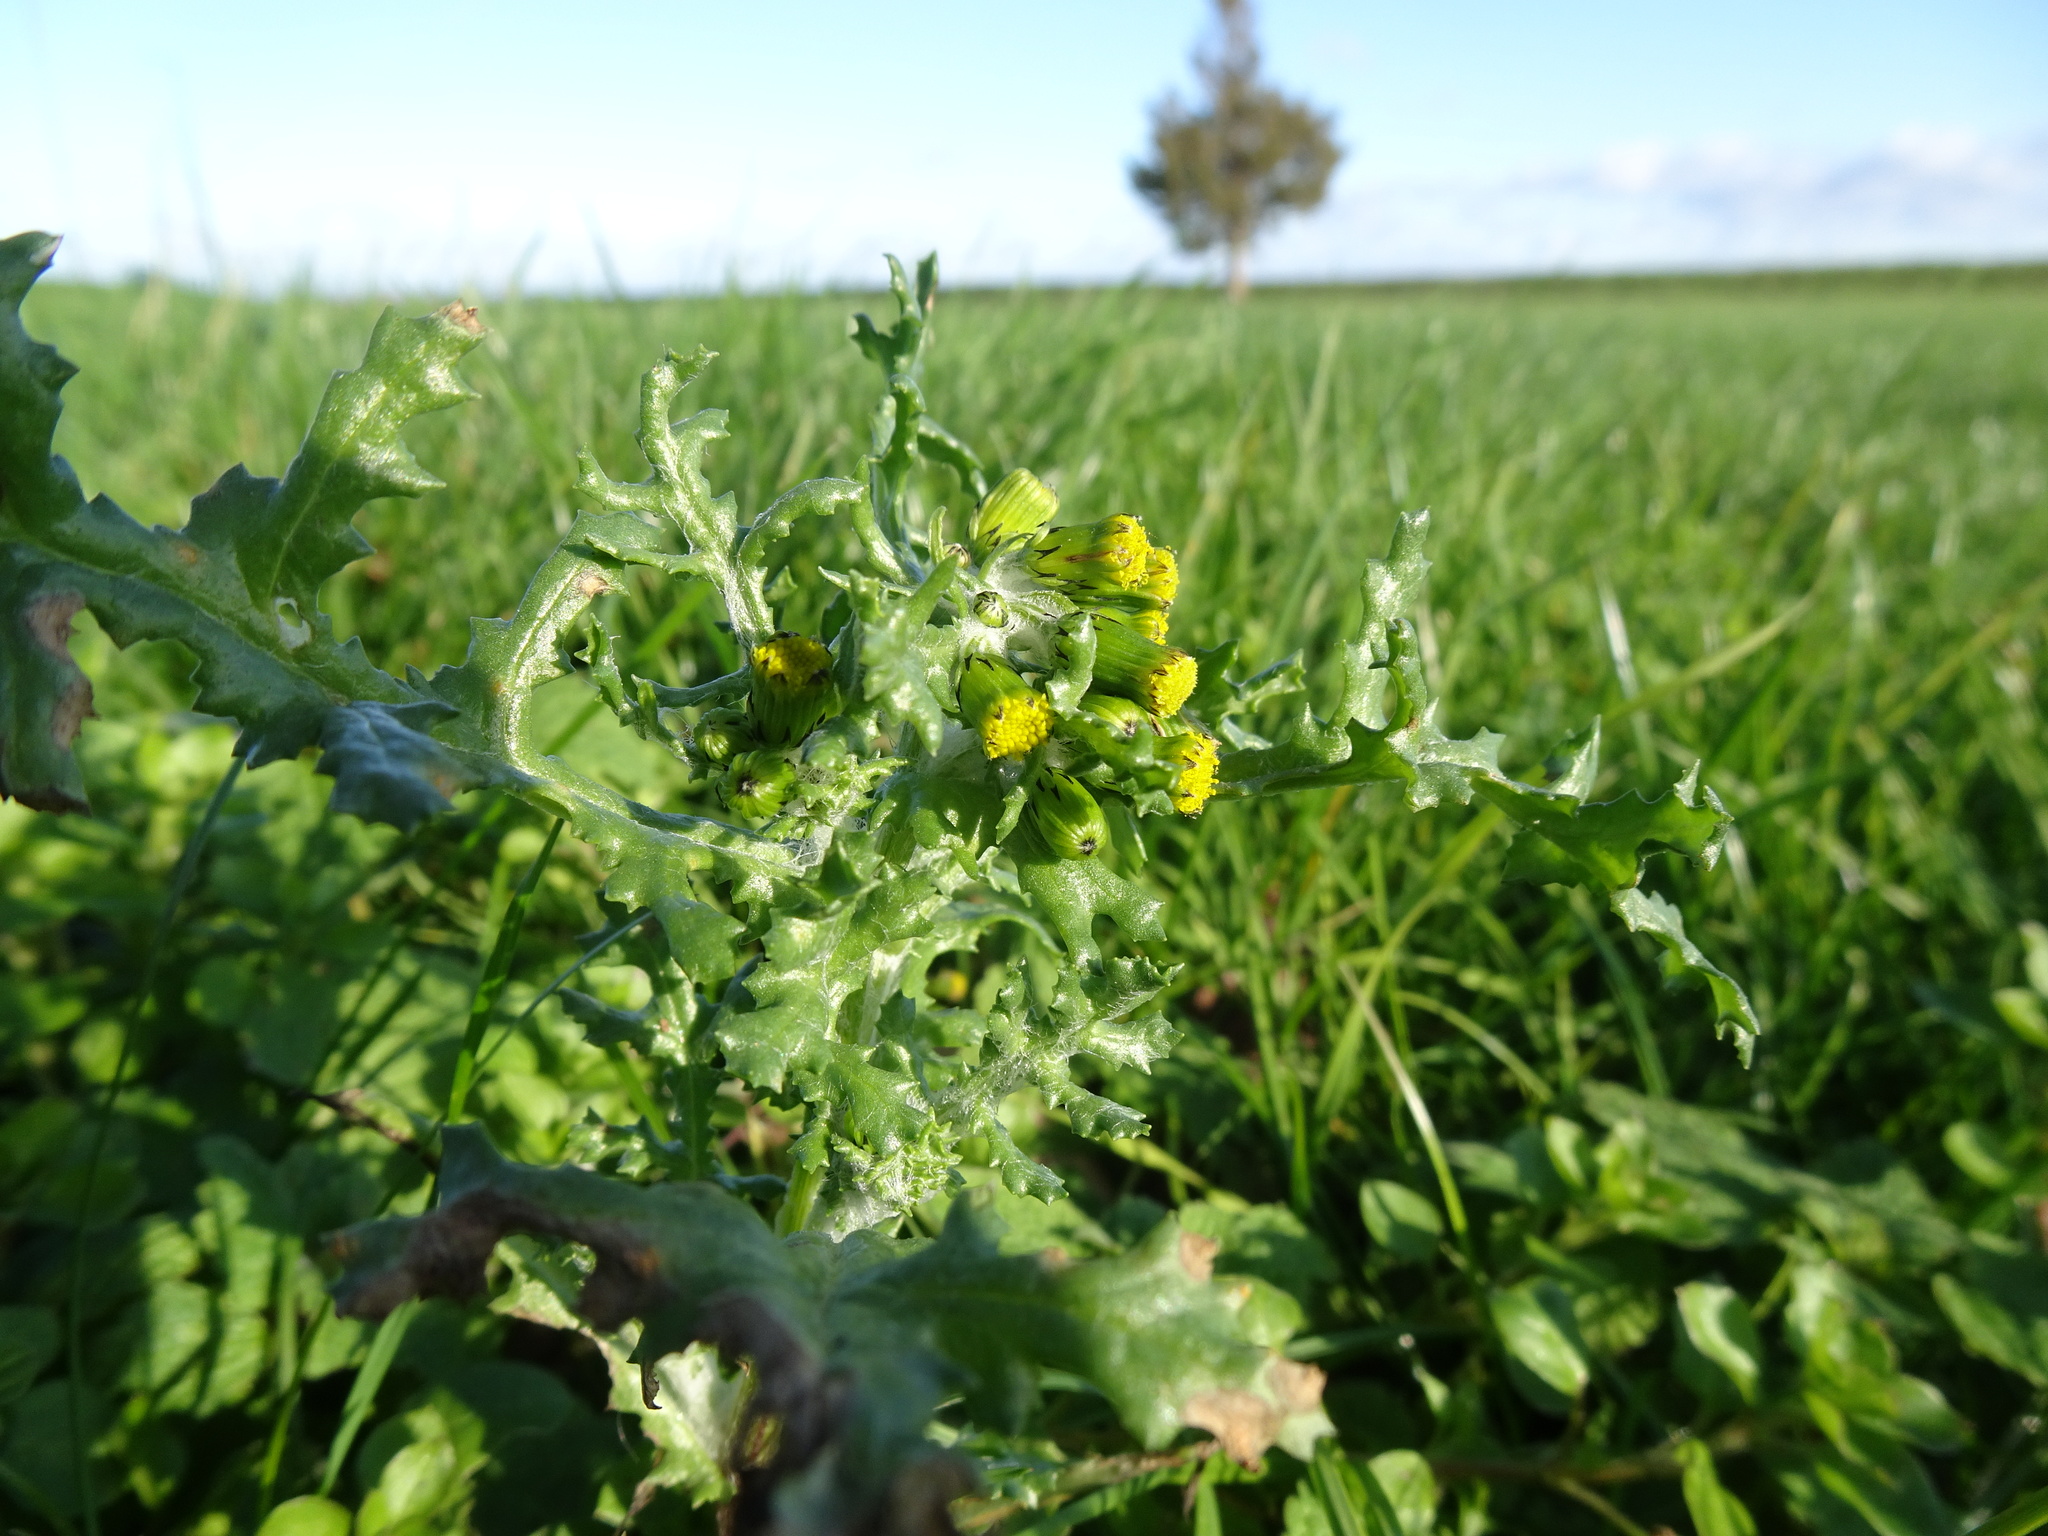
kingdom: Plantae
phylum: Tracheophyta
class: Magnoliopsida
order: Asterales
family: Asteraceae
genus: Senecio
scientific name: Senecio vulgaris
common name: Old-man-in-the-spring
